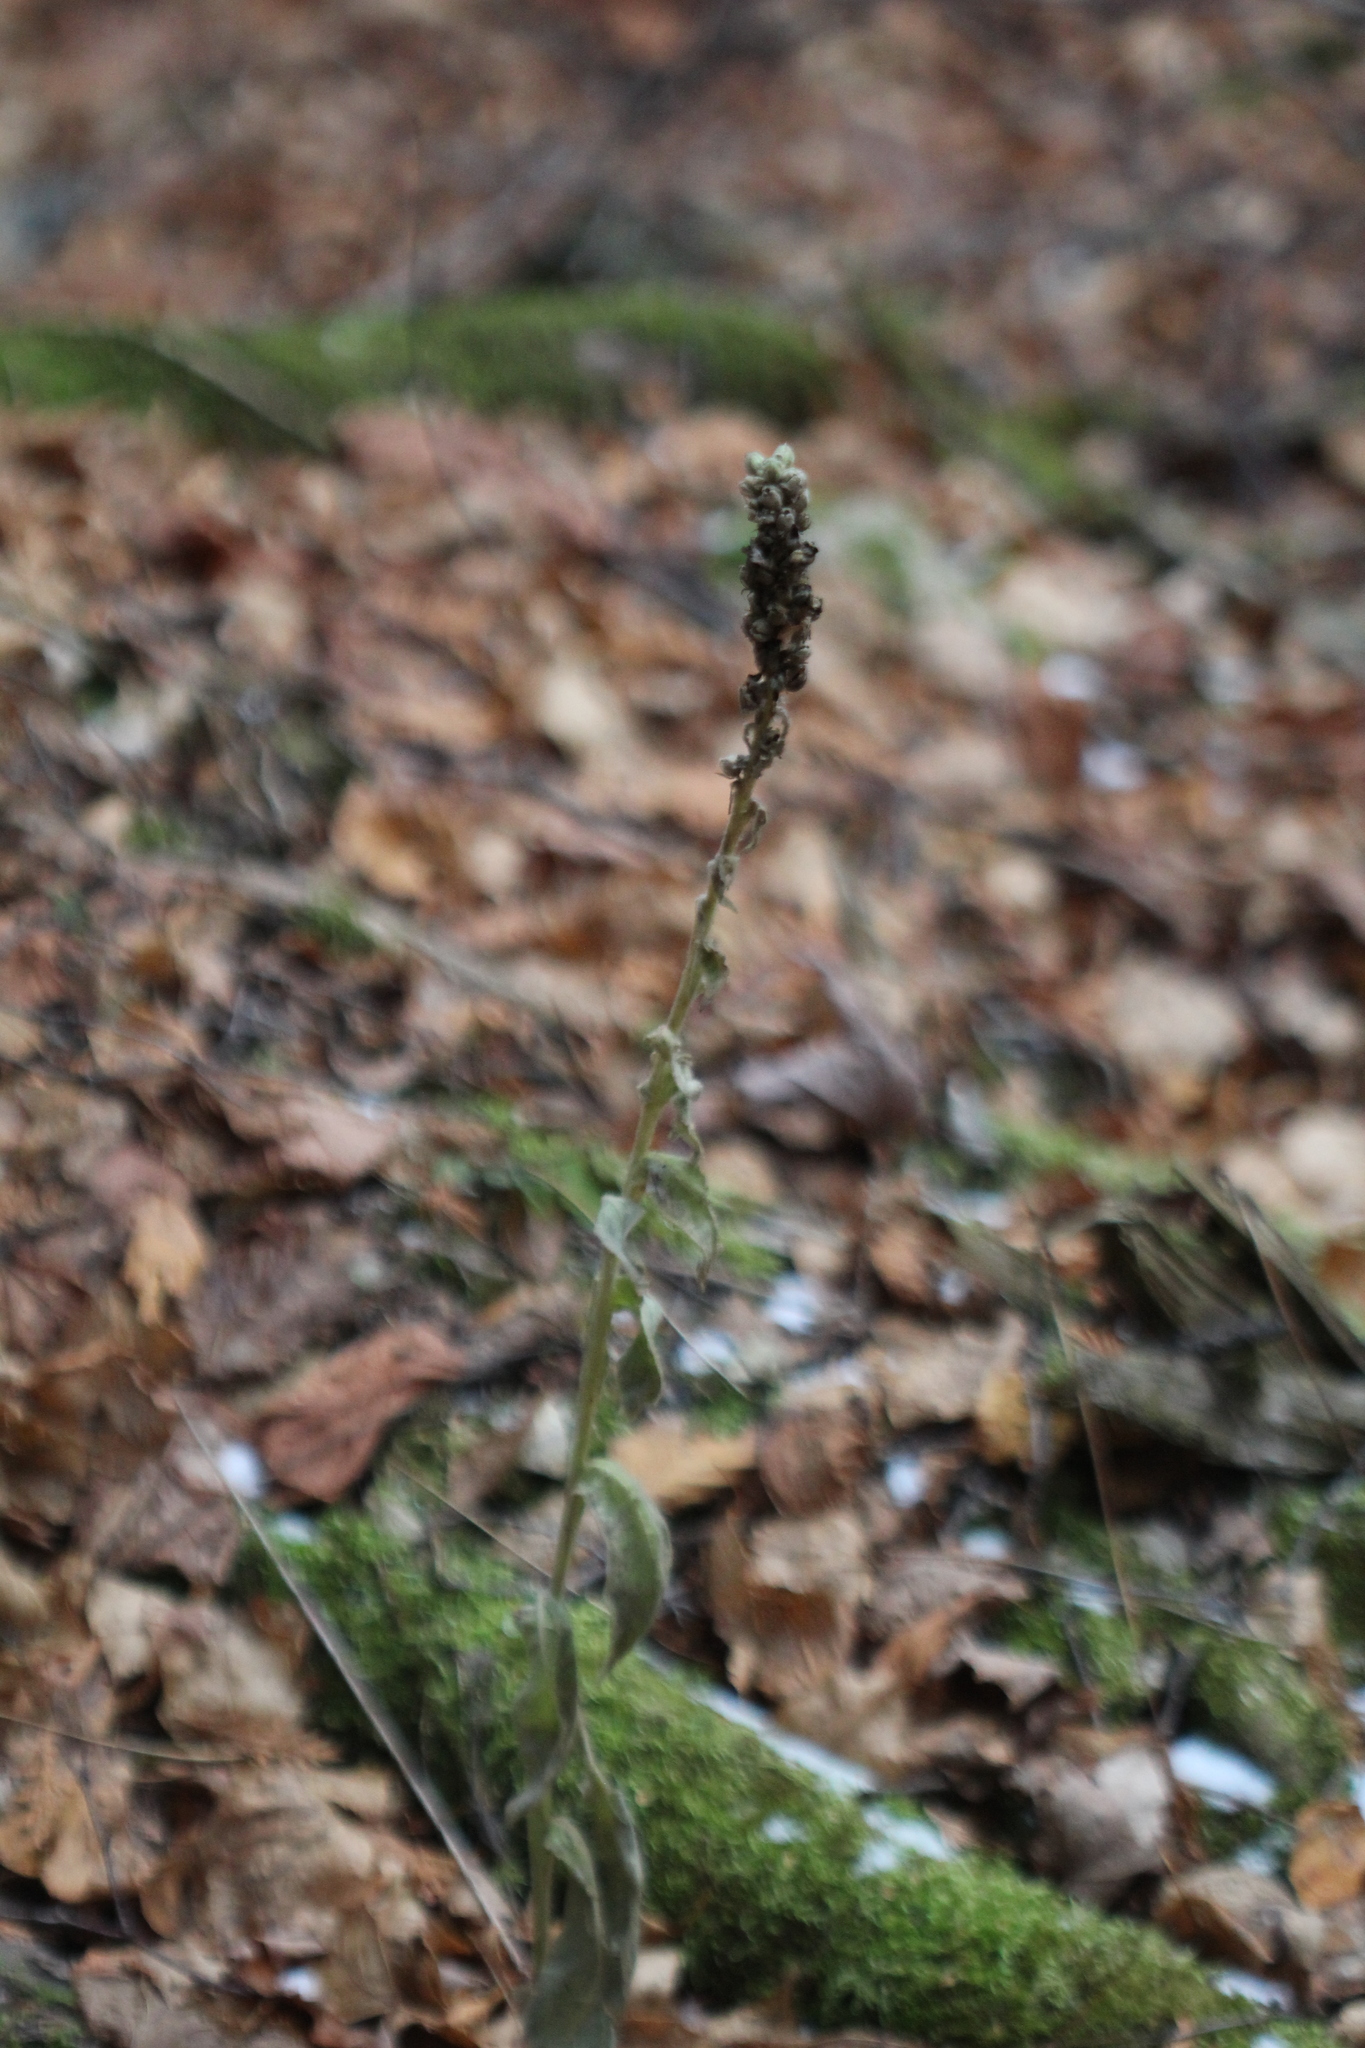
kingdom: Plantae
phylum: Tracheophyta
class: Magnoliopsida
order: Lamiales
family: Scrophulariaceae
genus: Verbascum
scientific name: Verbascum thapsus
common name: Common mullein
